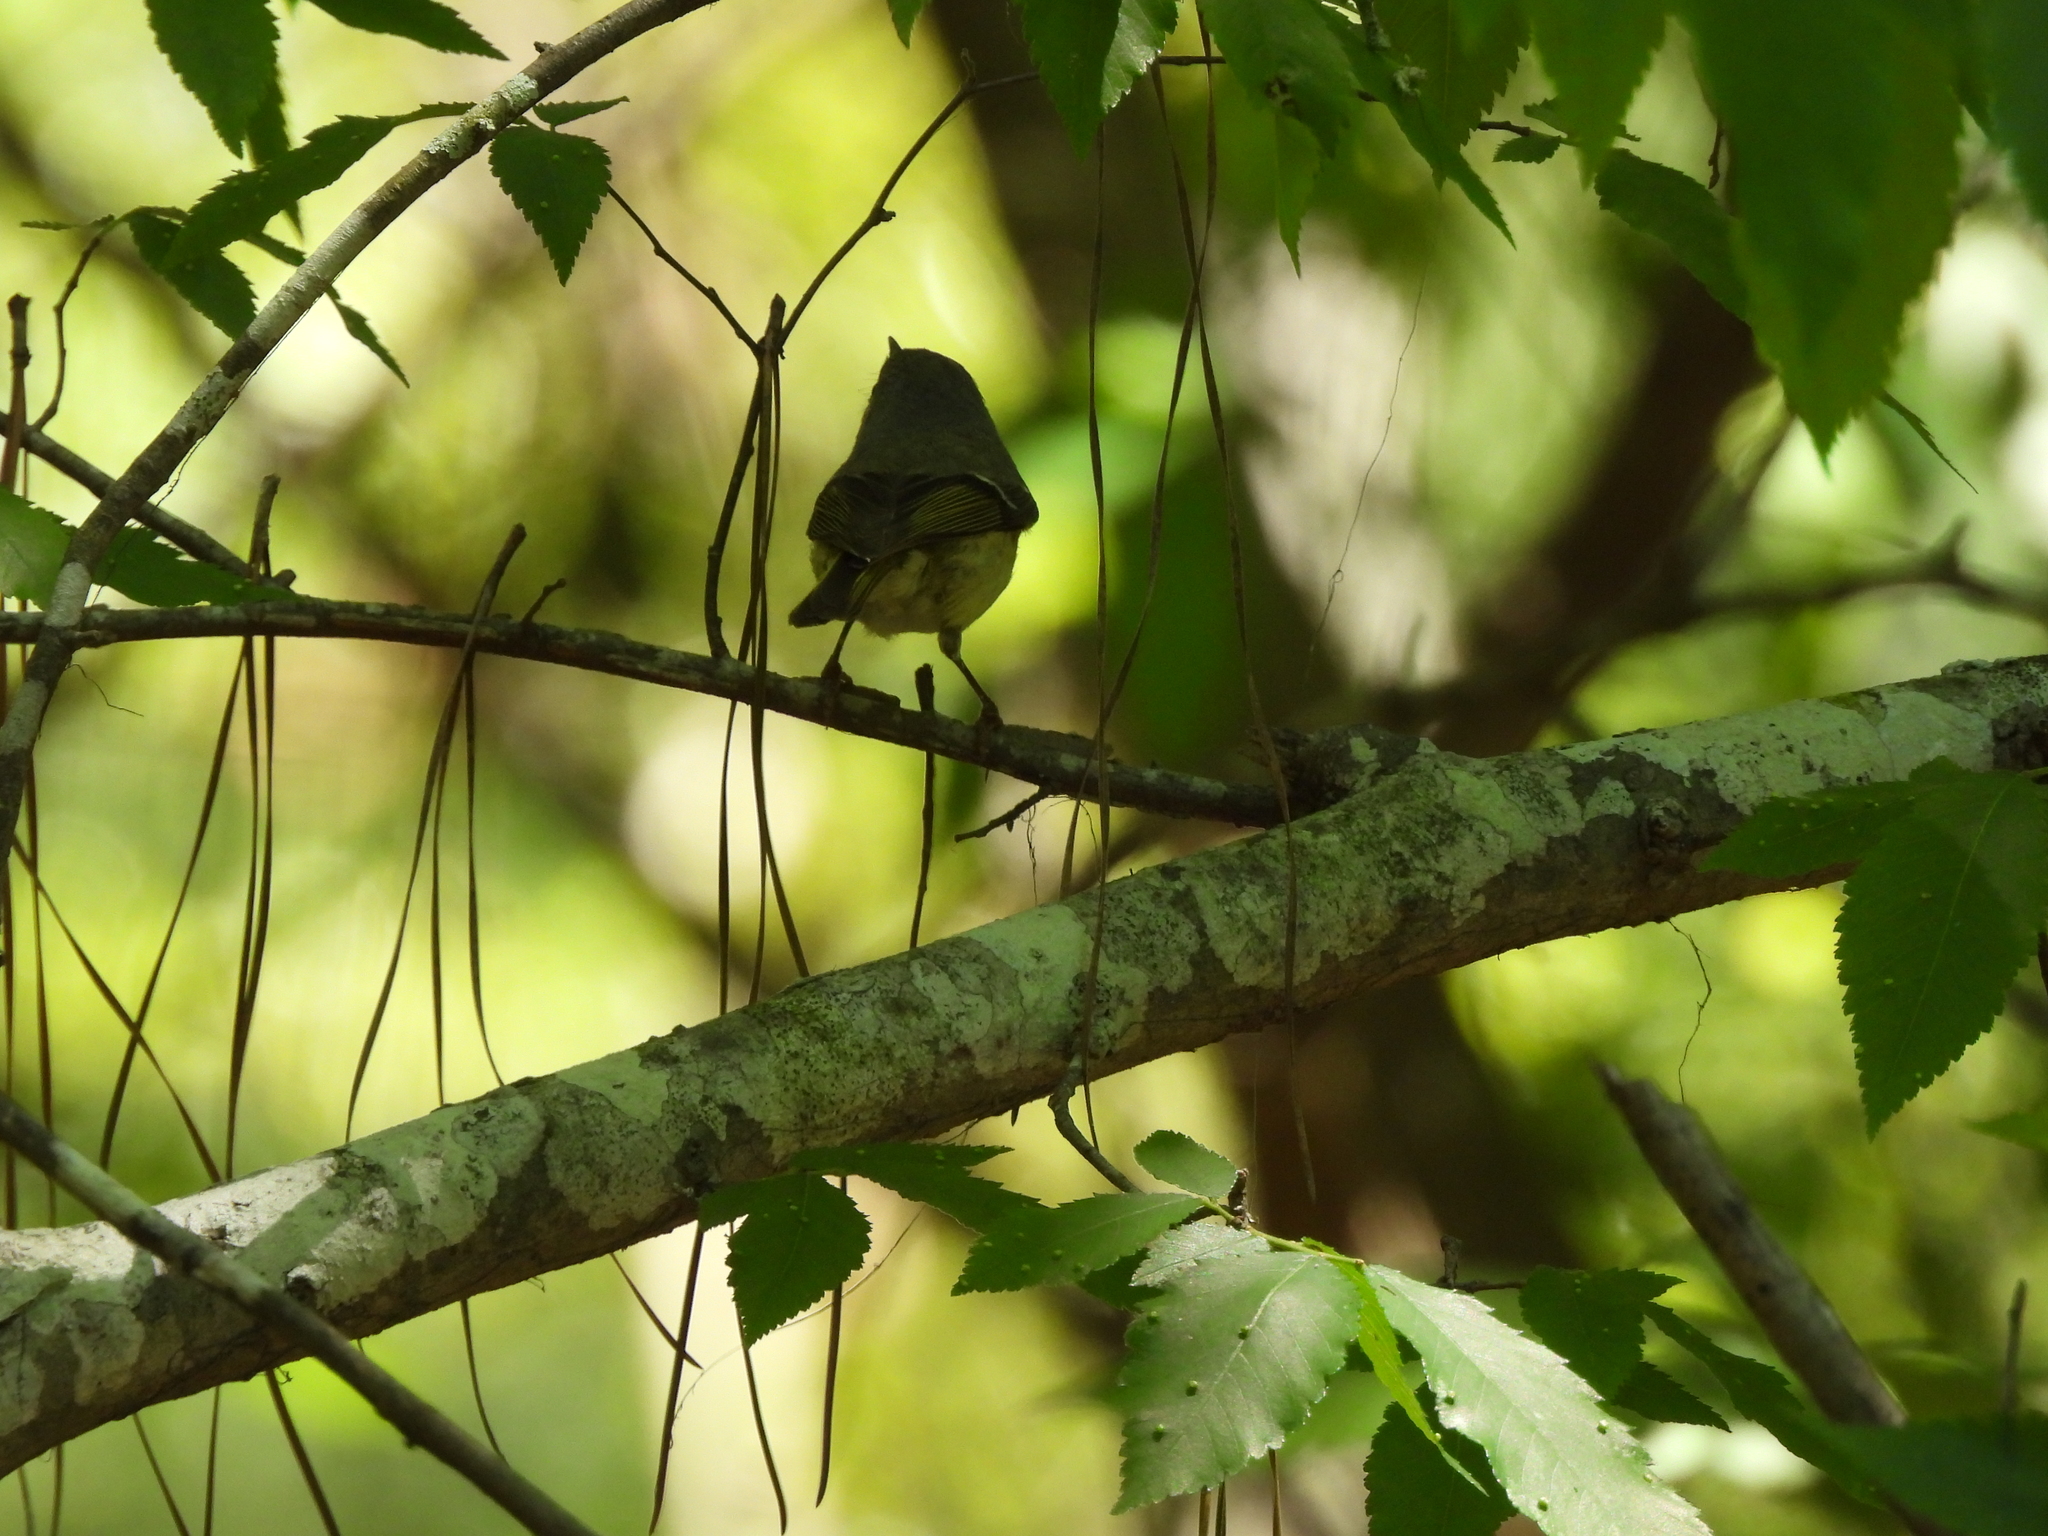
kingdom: Animalia
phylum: Chordata
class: Aves
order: Passeriformes
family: Regulidae
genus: Regulus
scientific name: Regulus calendula
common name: Ruby-crowned kinglet
